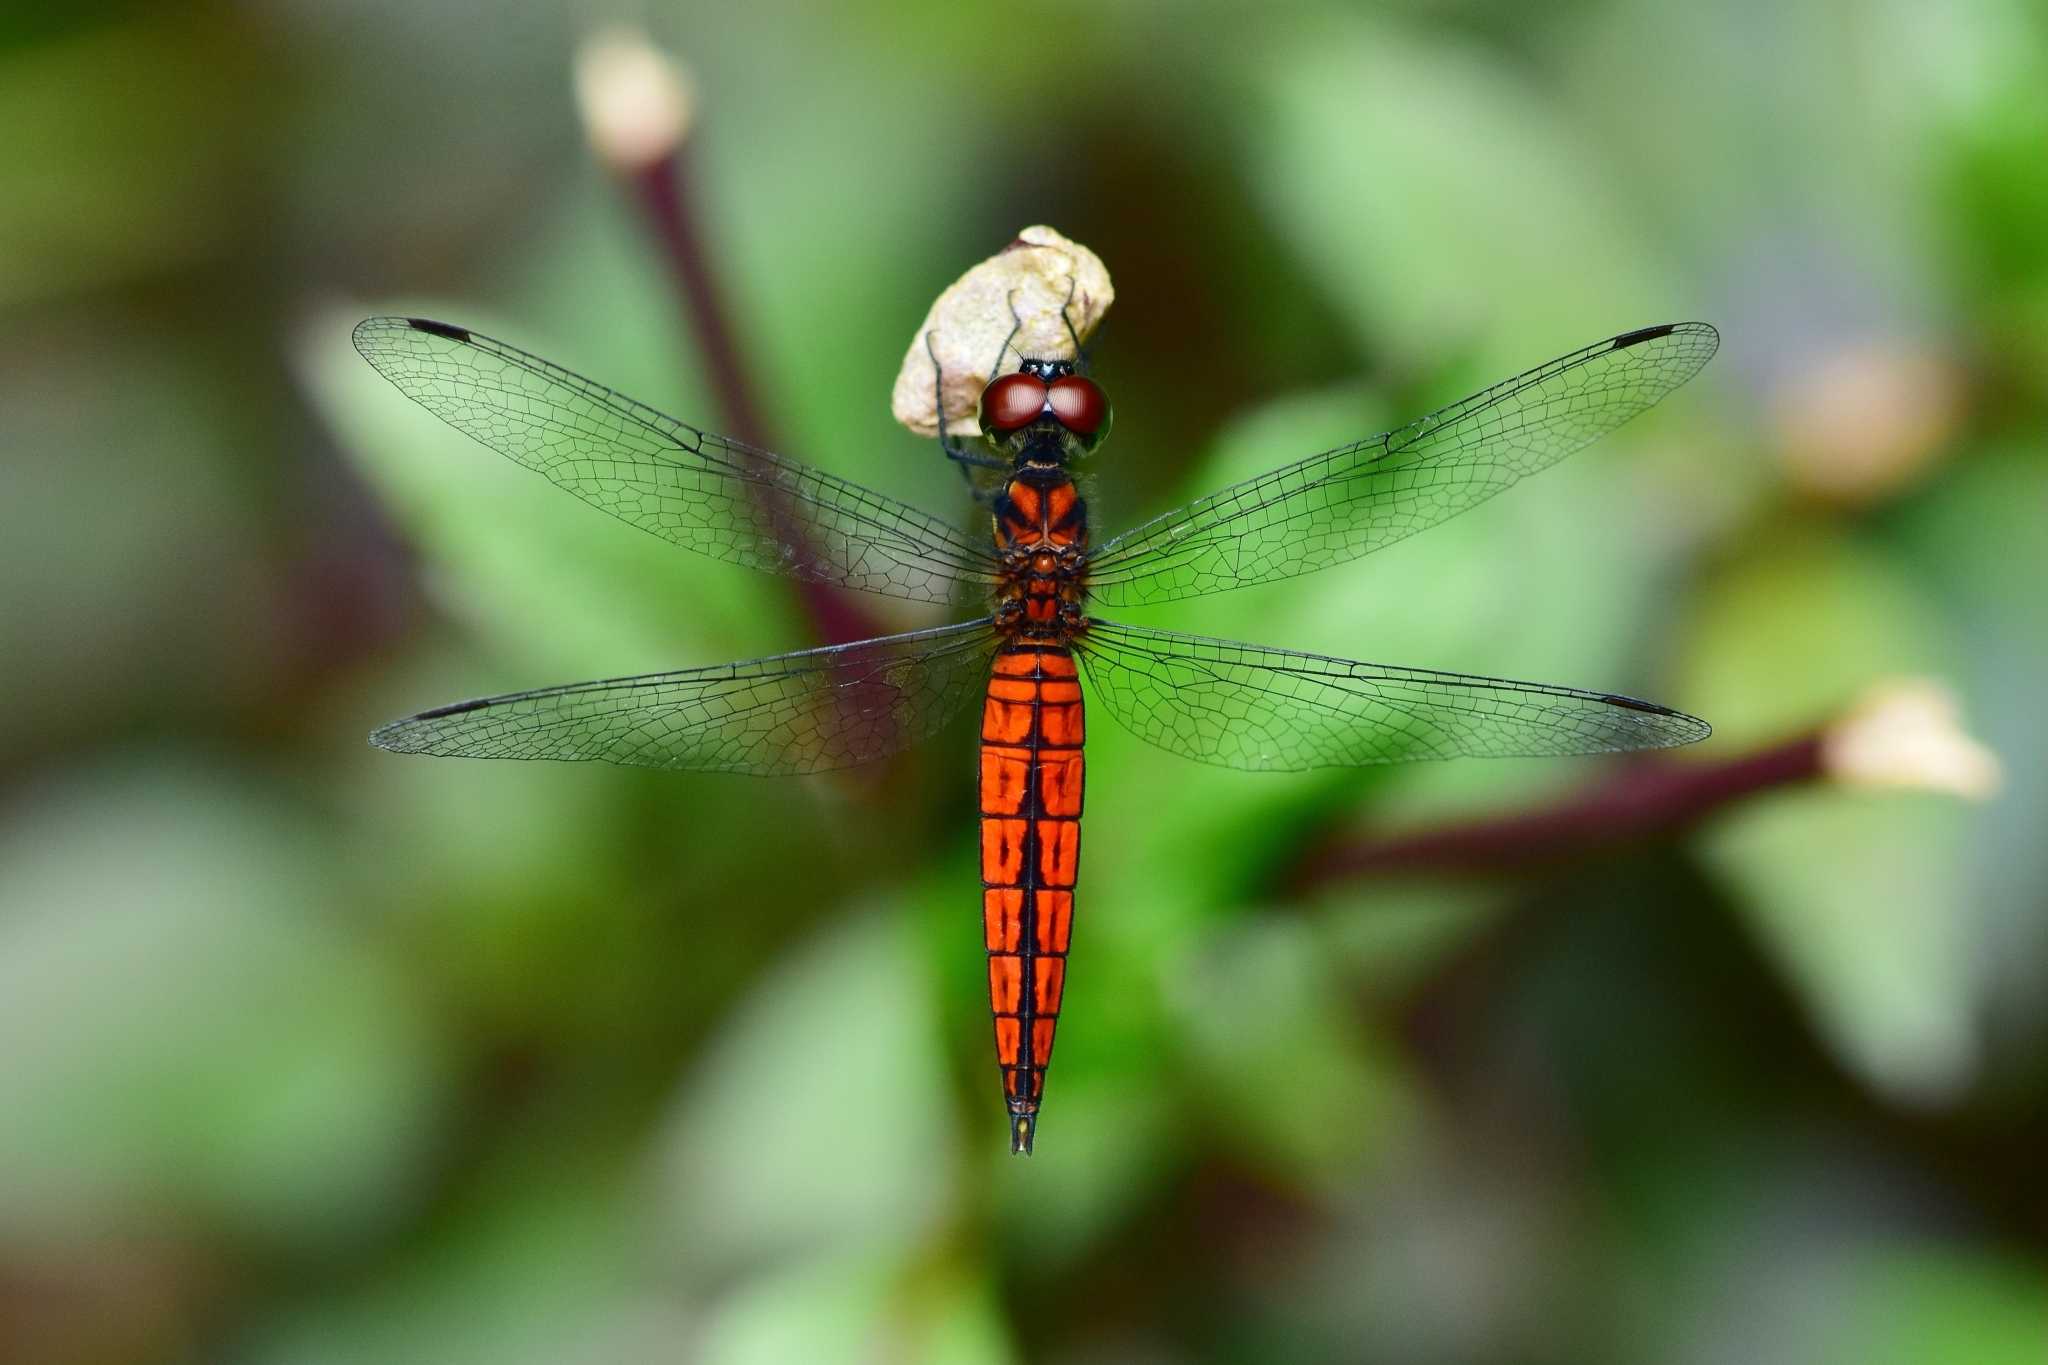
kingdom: Animalia
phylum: Arthropoda
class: Insecta
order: Odonata
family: Libellulidae
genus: Lyriothemis
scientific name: Lyriothemis acigastra
